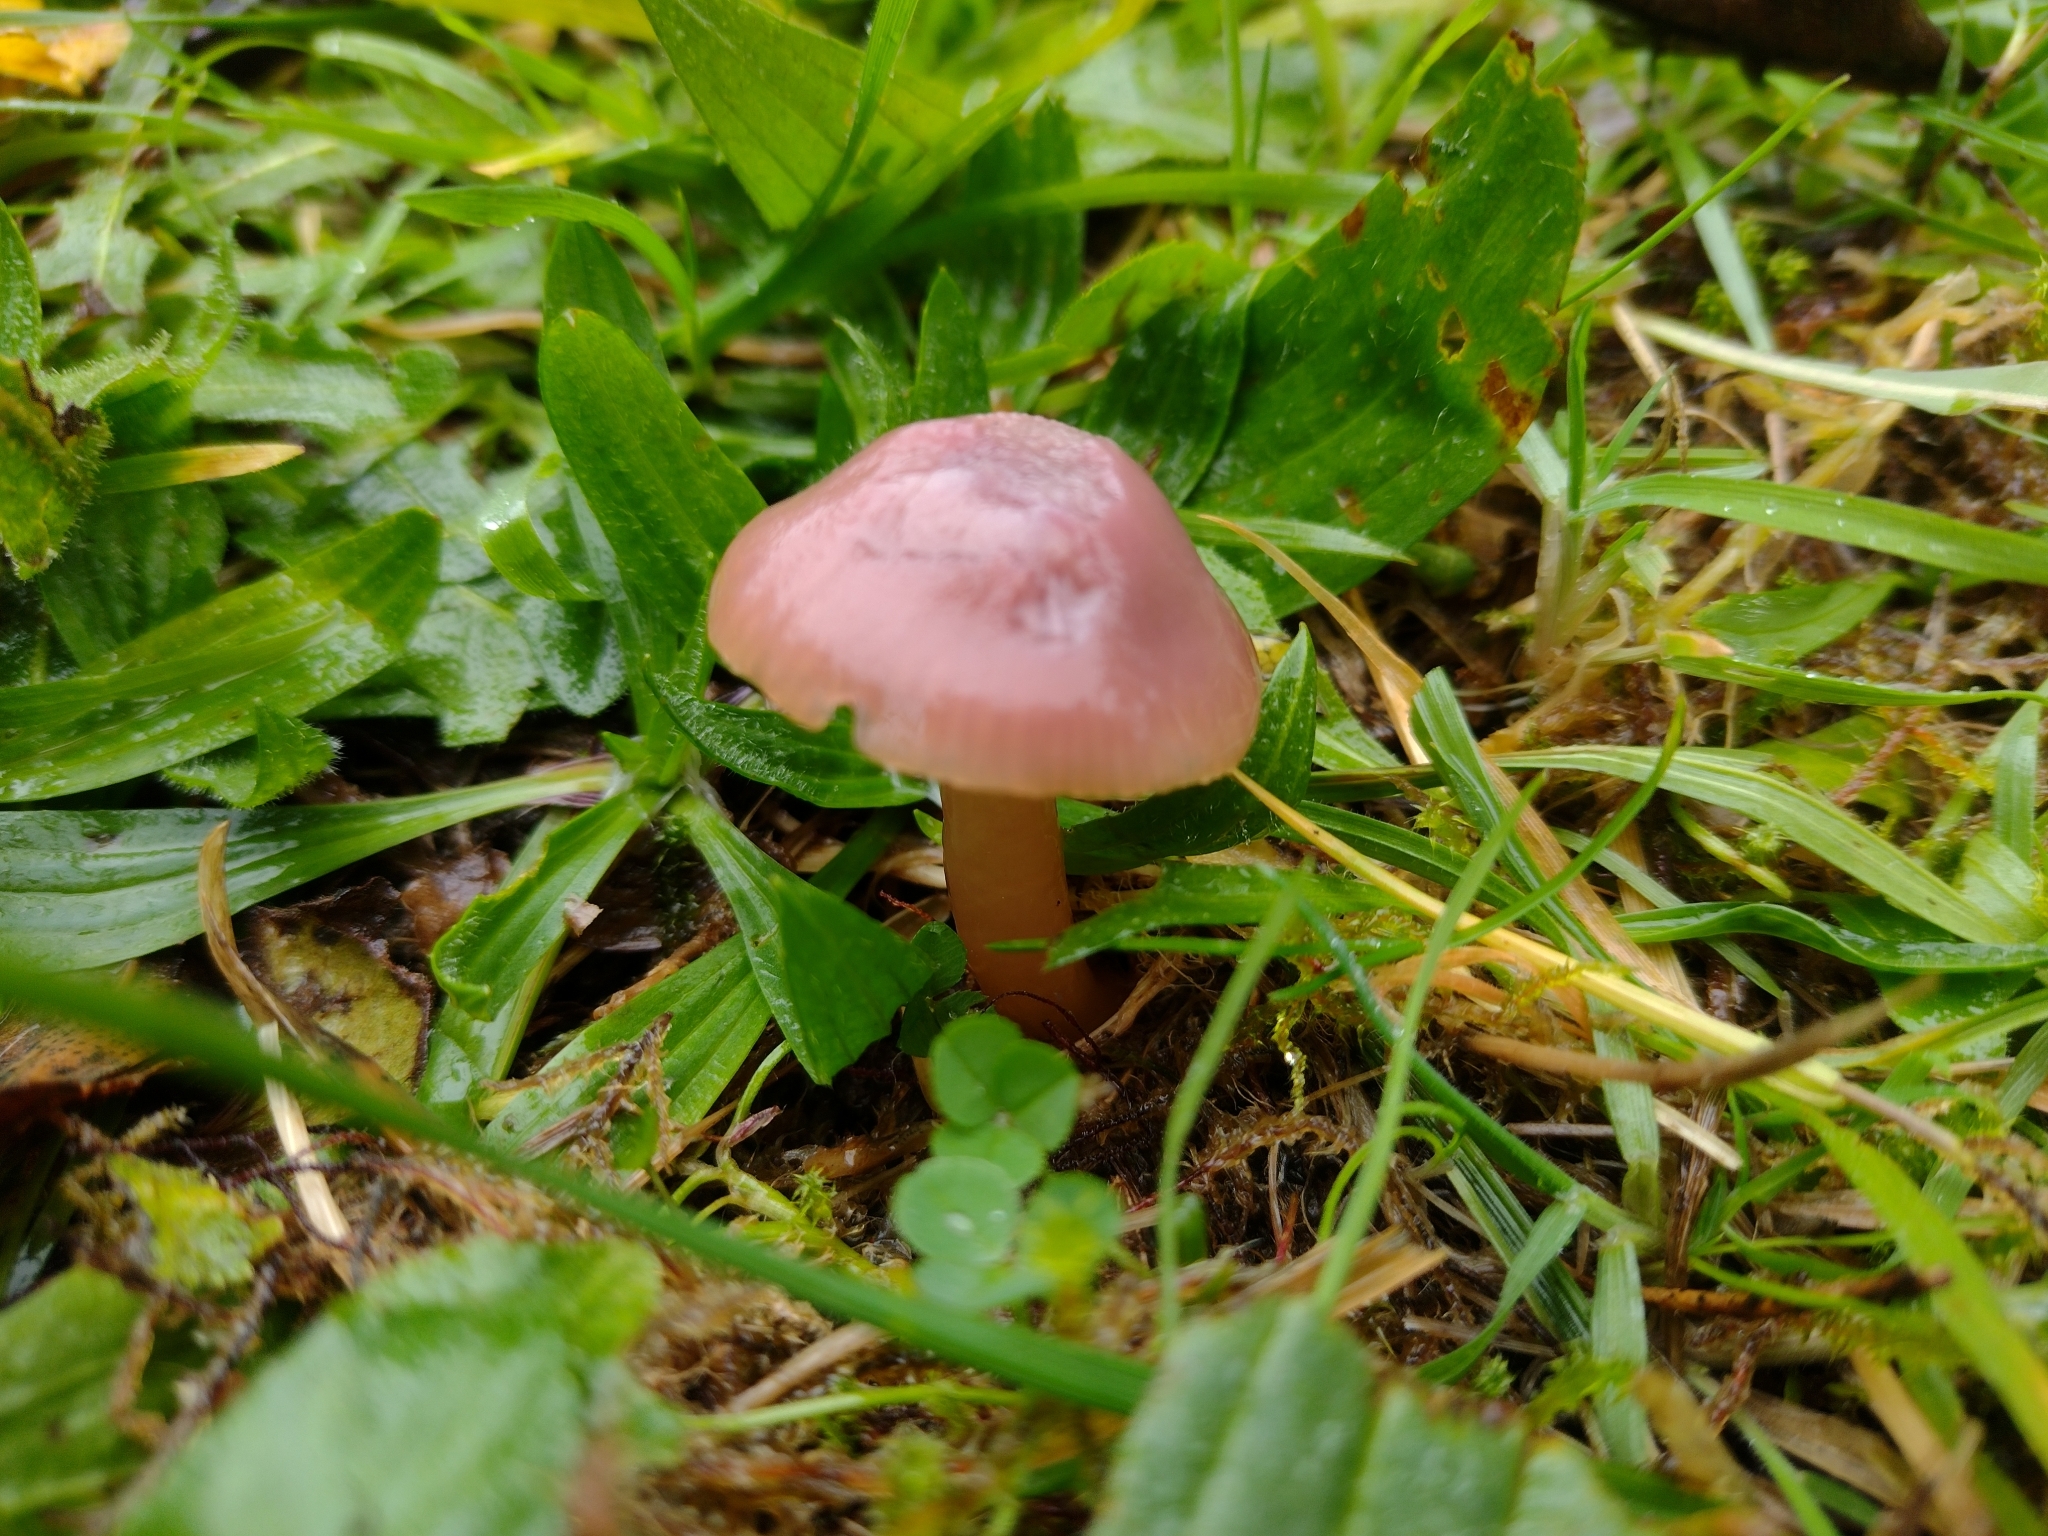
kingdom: Fungi
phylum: Basidiomycota
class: Agaricomycetes
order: Agaricales
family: Hygrophoraceae
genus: Gliophorus
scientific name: Gliophorus reginae
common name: Jubilee waxcap
